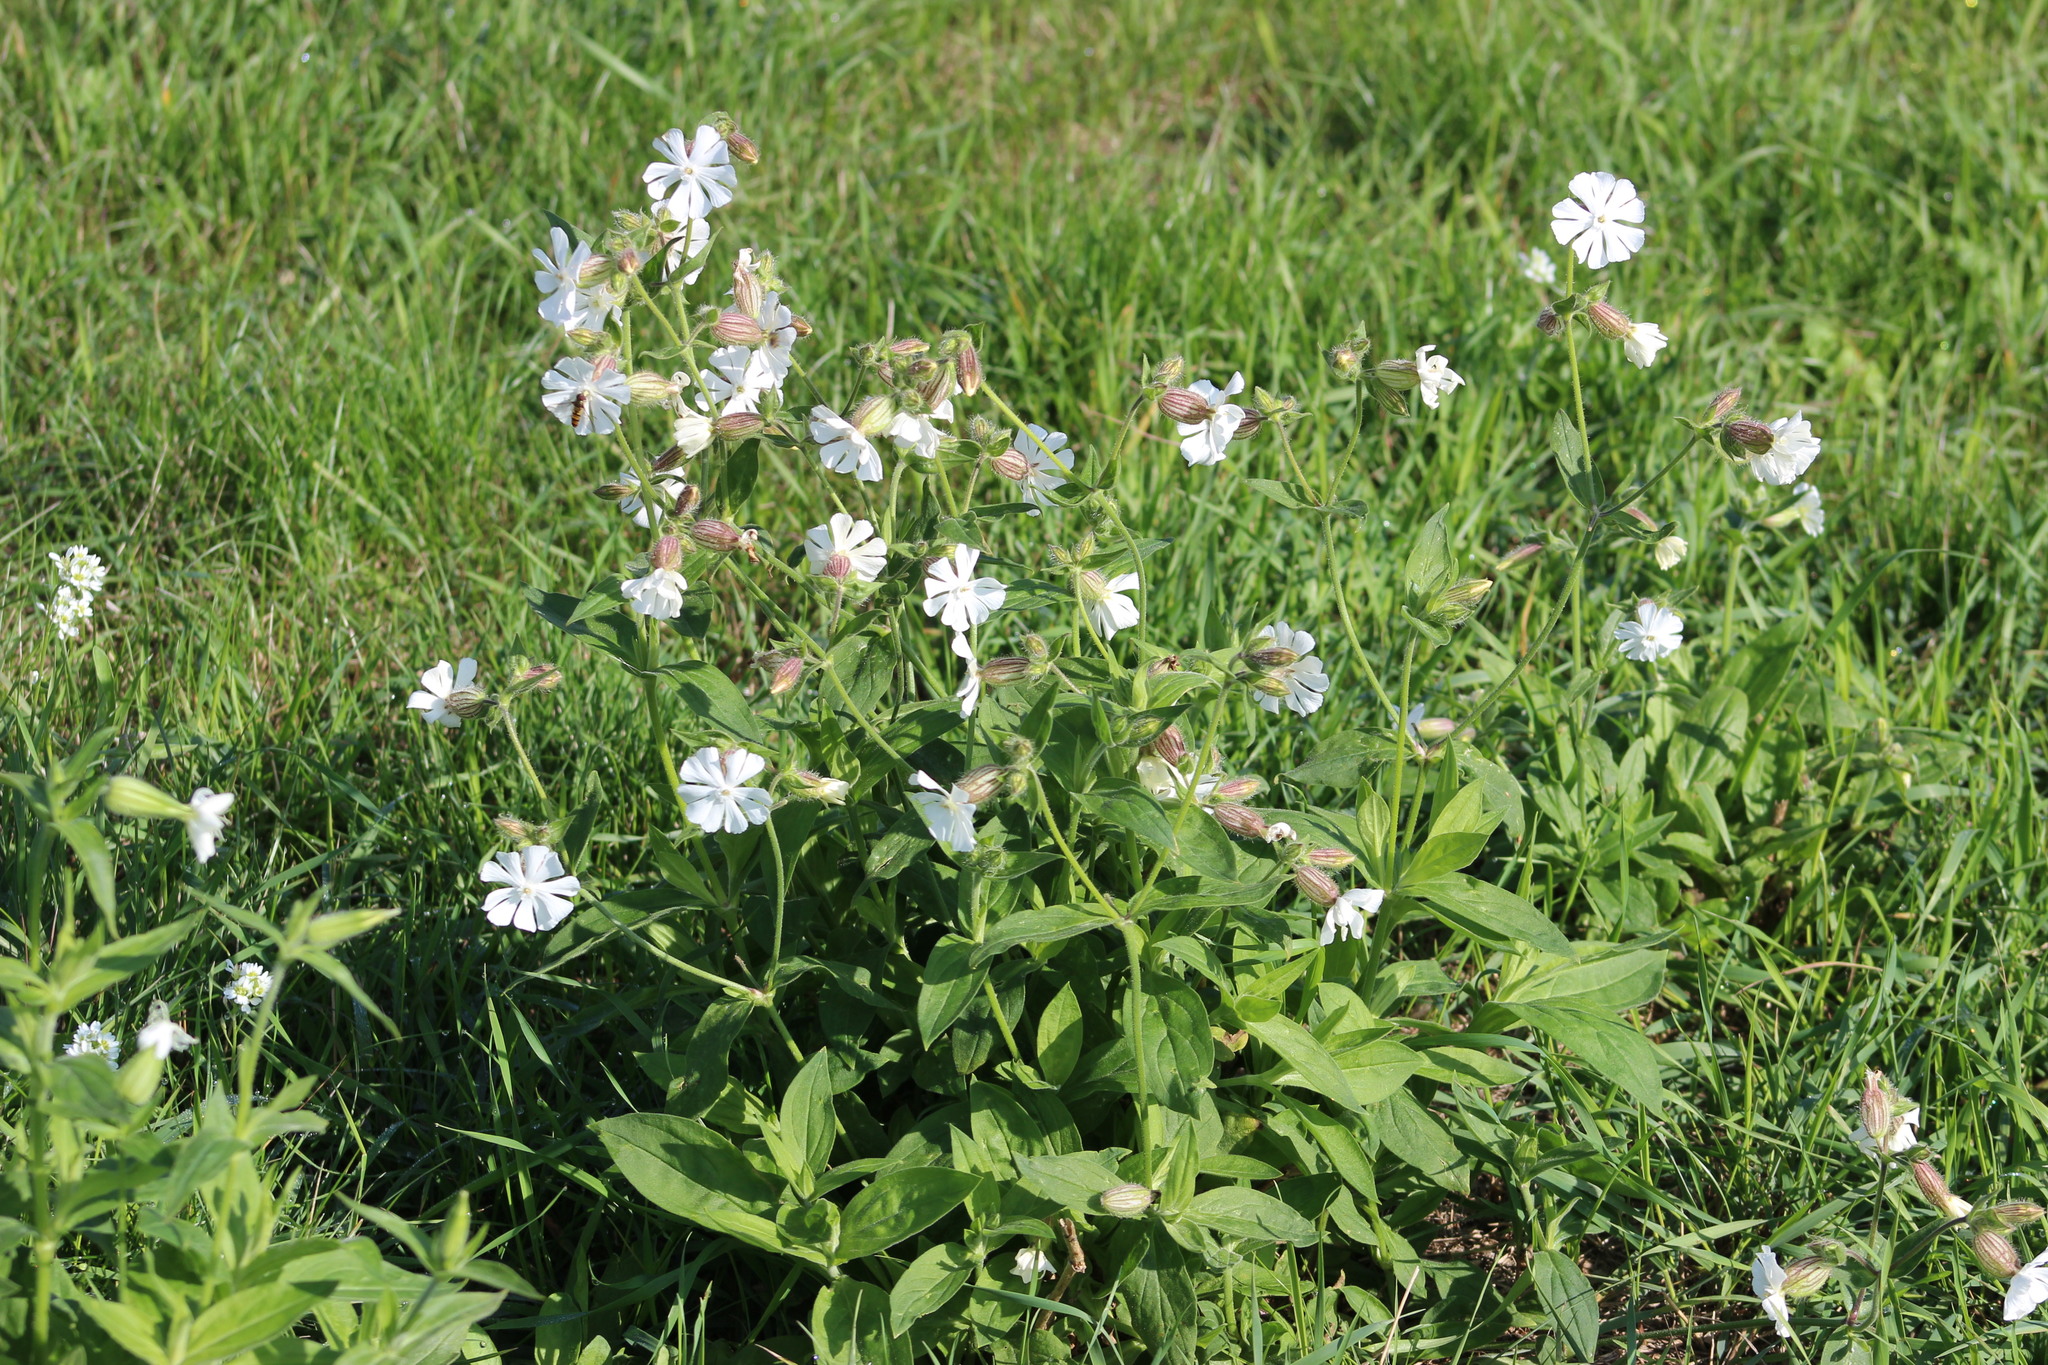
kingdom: Plantae
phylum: Tracheophyta
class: Magnoliopsida
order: Caryophyllales
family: Caryophyllaceae
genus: Silene
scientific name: Silene latifolia
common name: White campion
